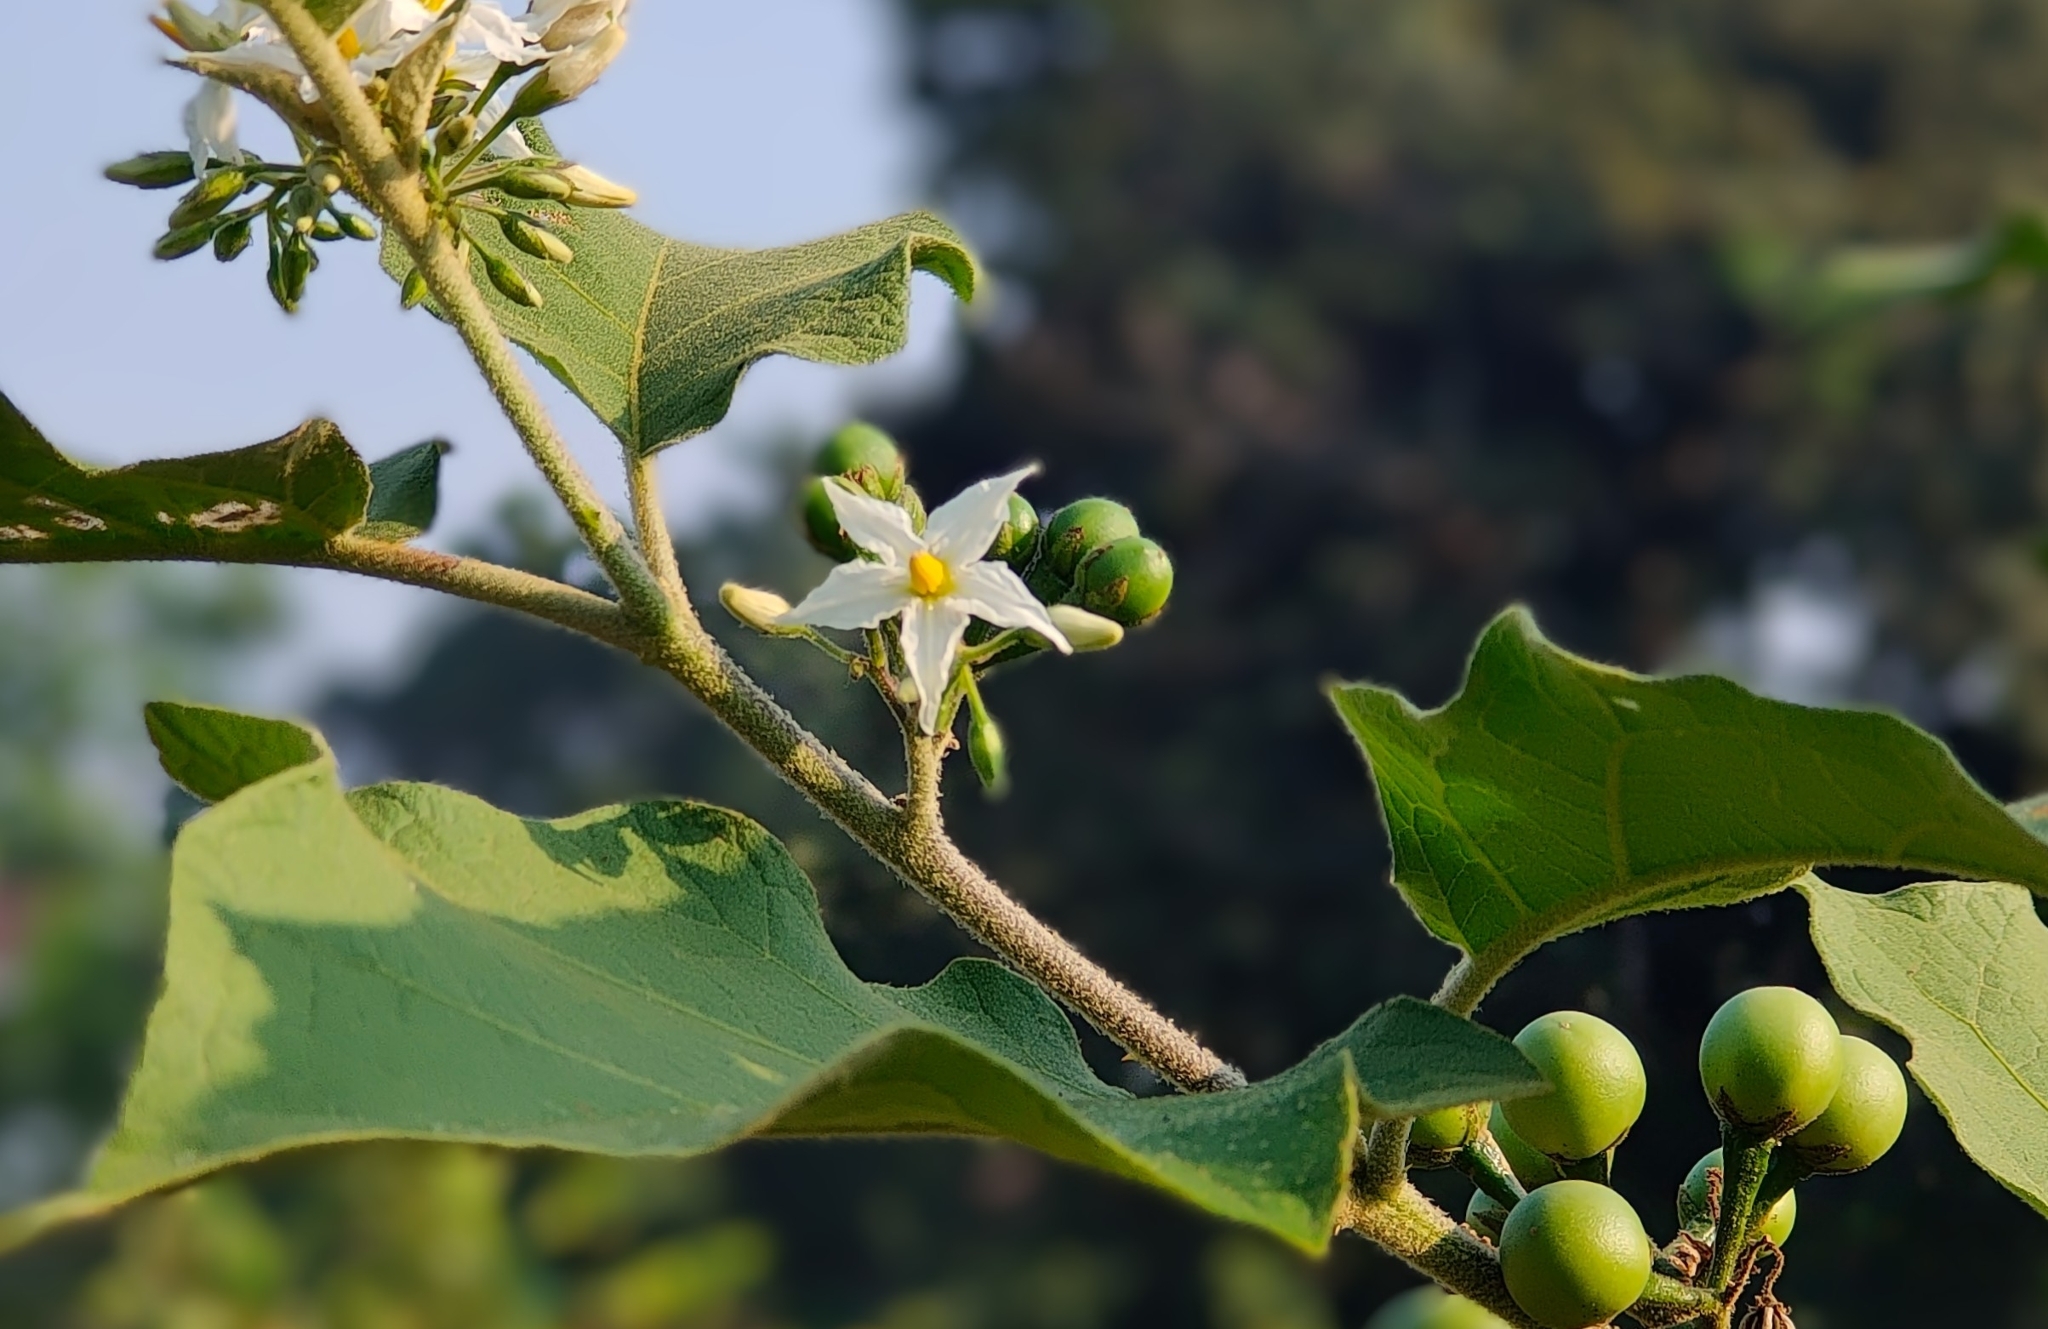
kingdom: Plantae
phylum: Tracheophyta
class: Magnoliopsida
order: Solanales
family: Solanaceae
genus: Solanum
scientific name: Solanum torvum
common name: Turkey berry
